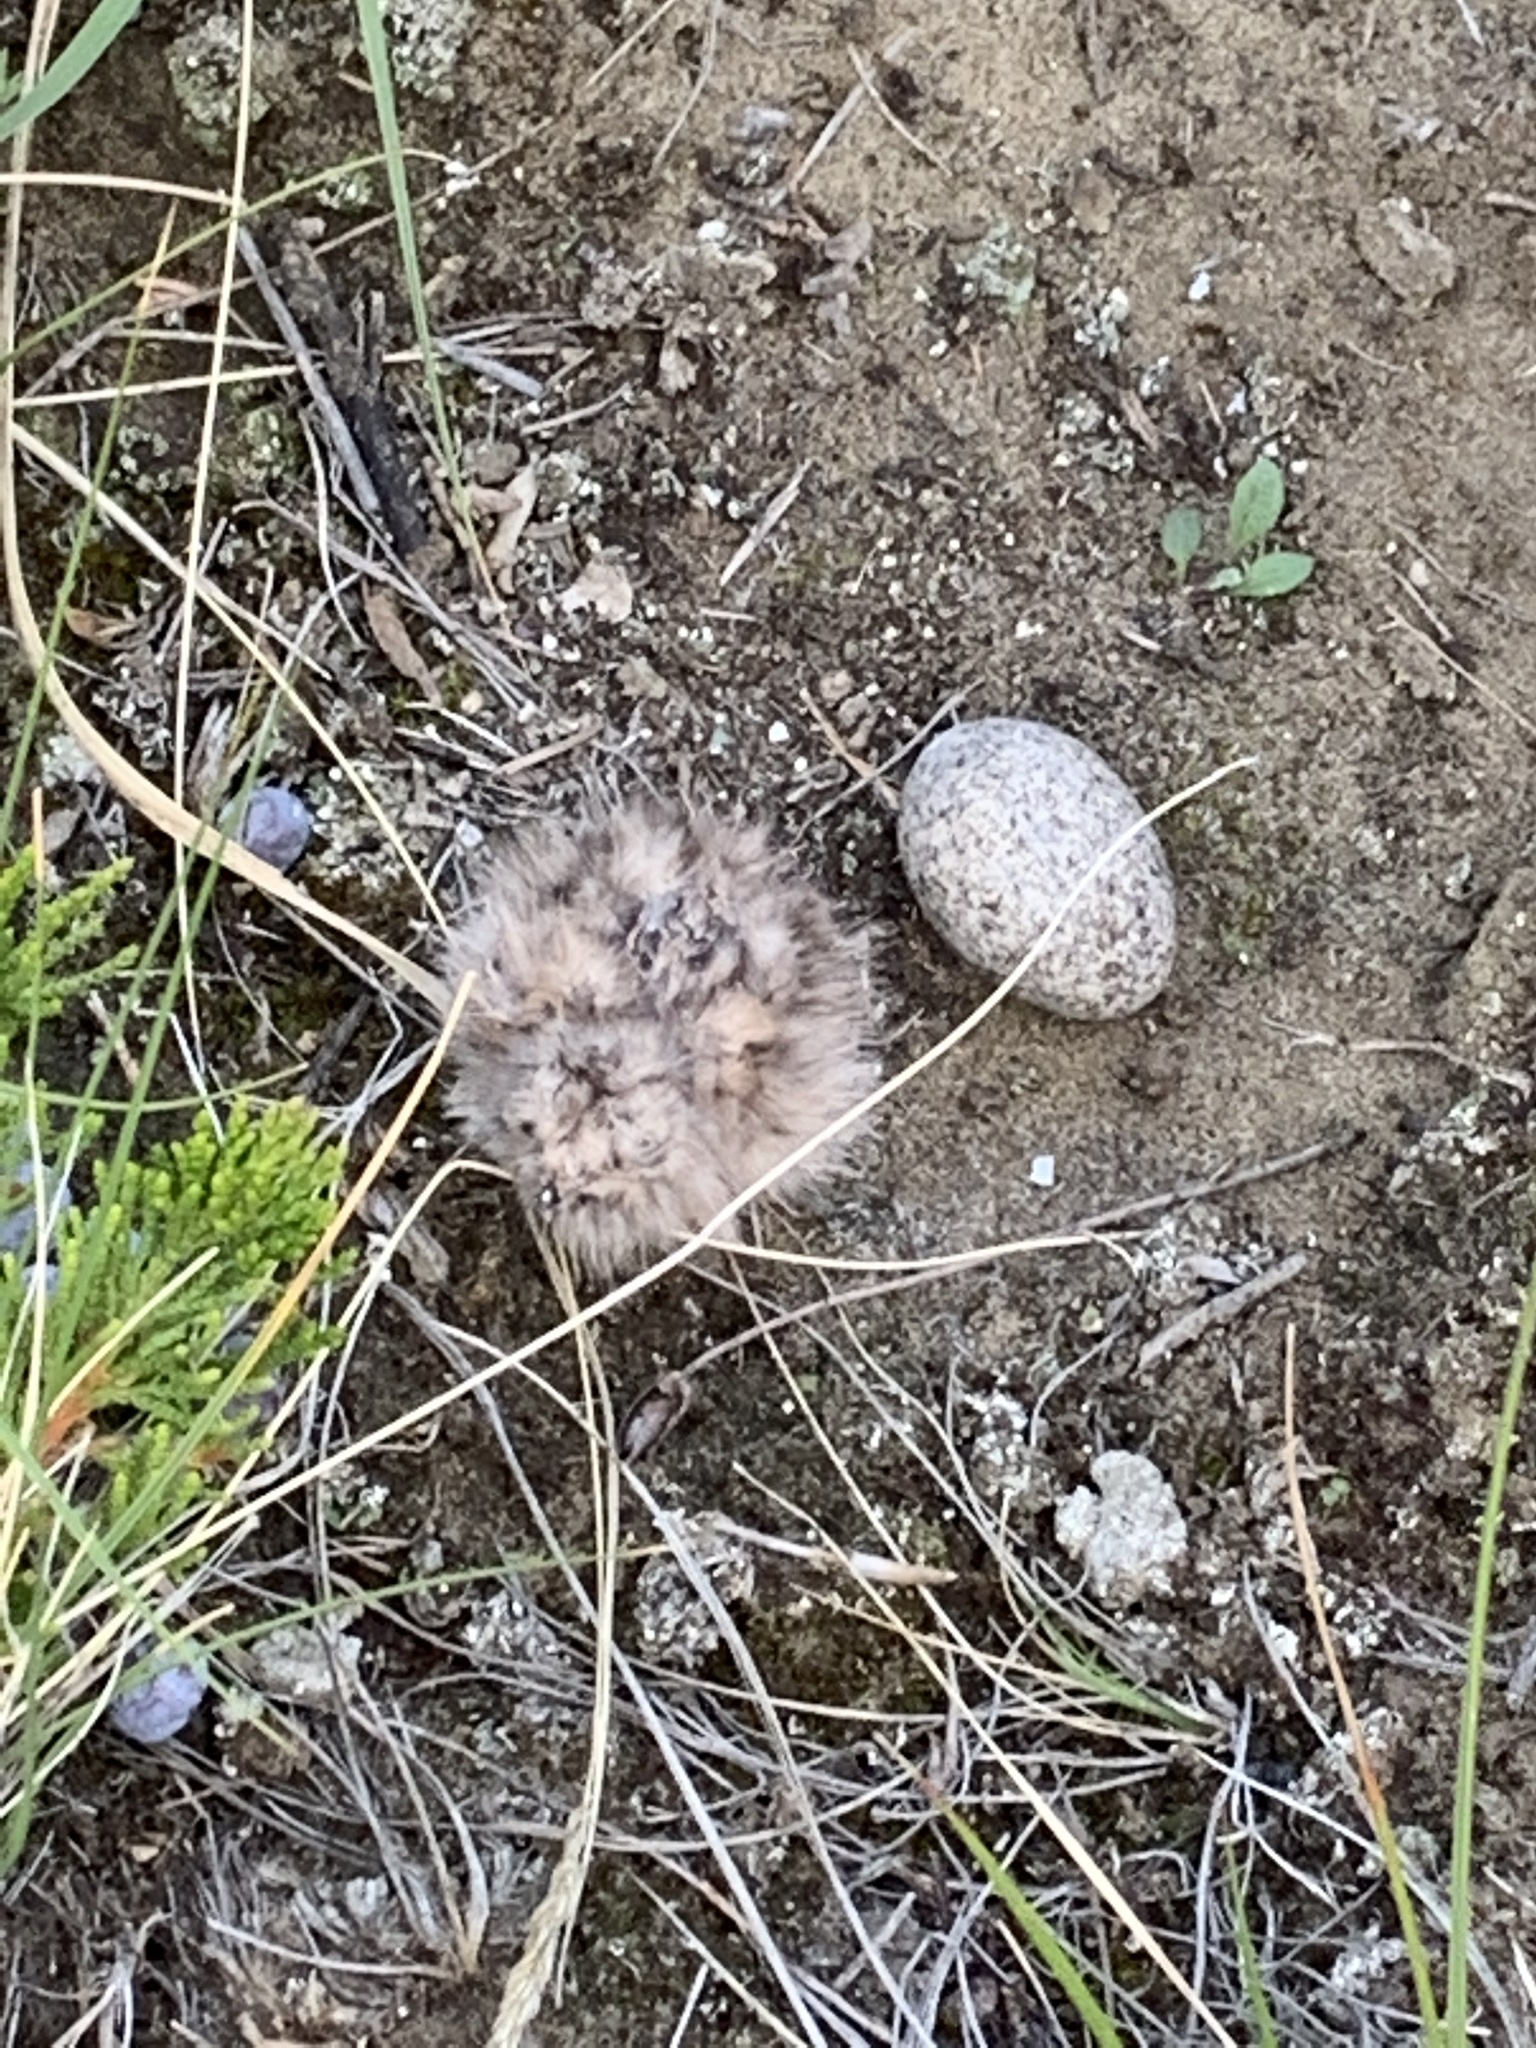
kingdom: Animalia
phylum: Chordata
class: Aves
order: Caprimulgiformes
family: Caprimulgidae
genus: Chordeiles
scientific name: Chordeiles minor
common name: Common nighthawk
